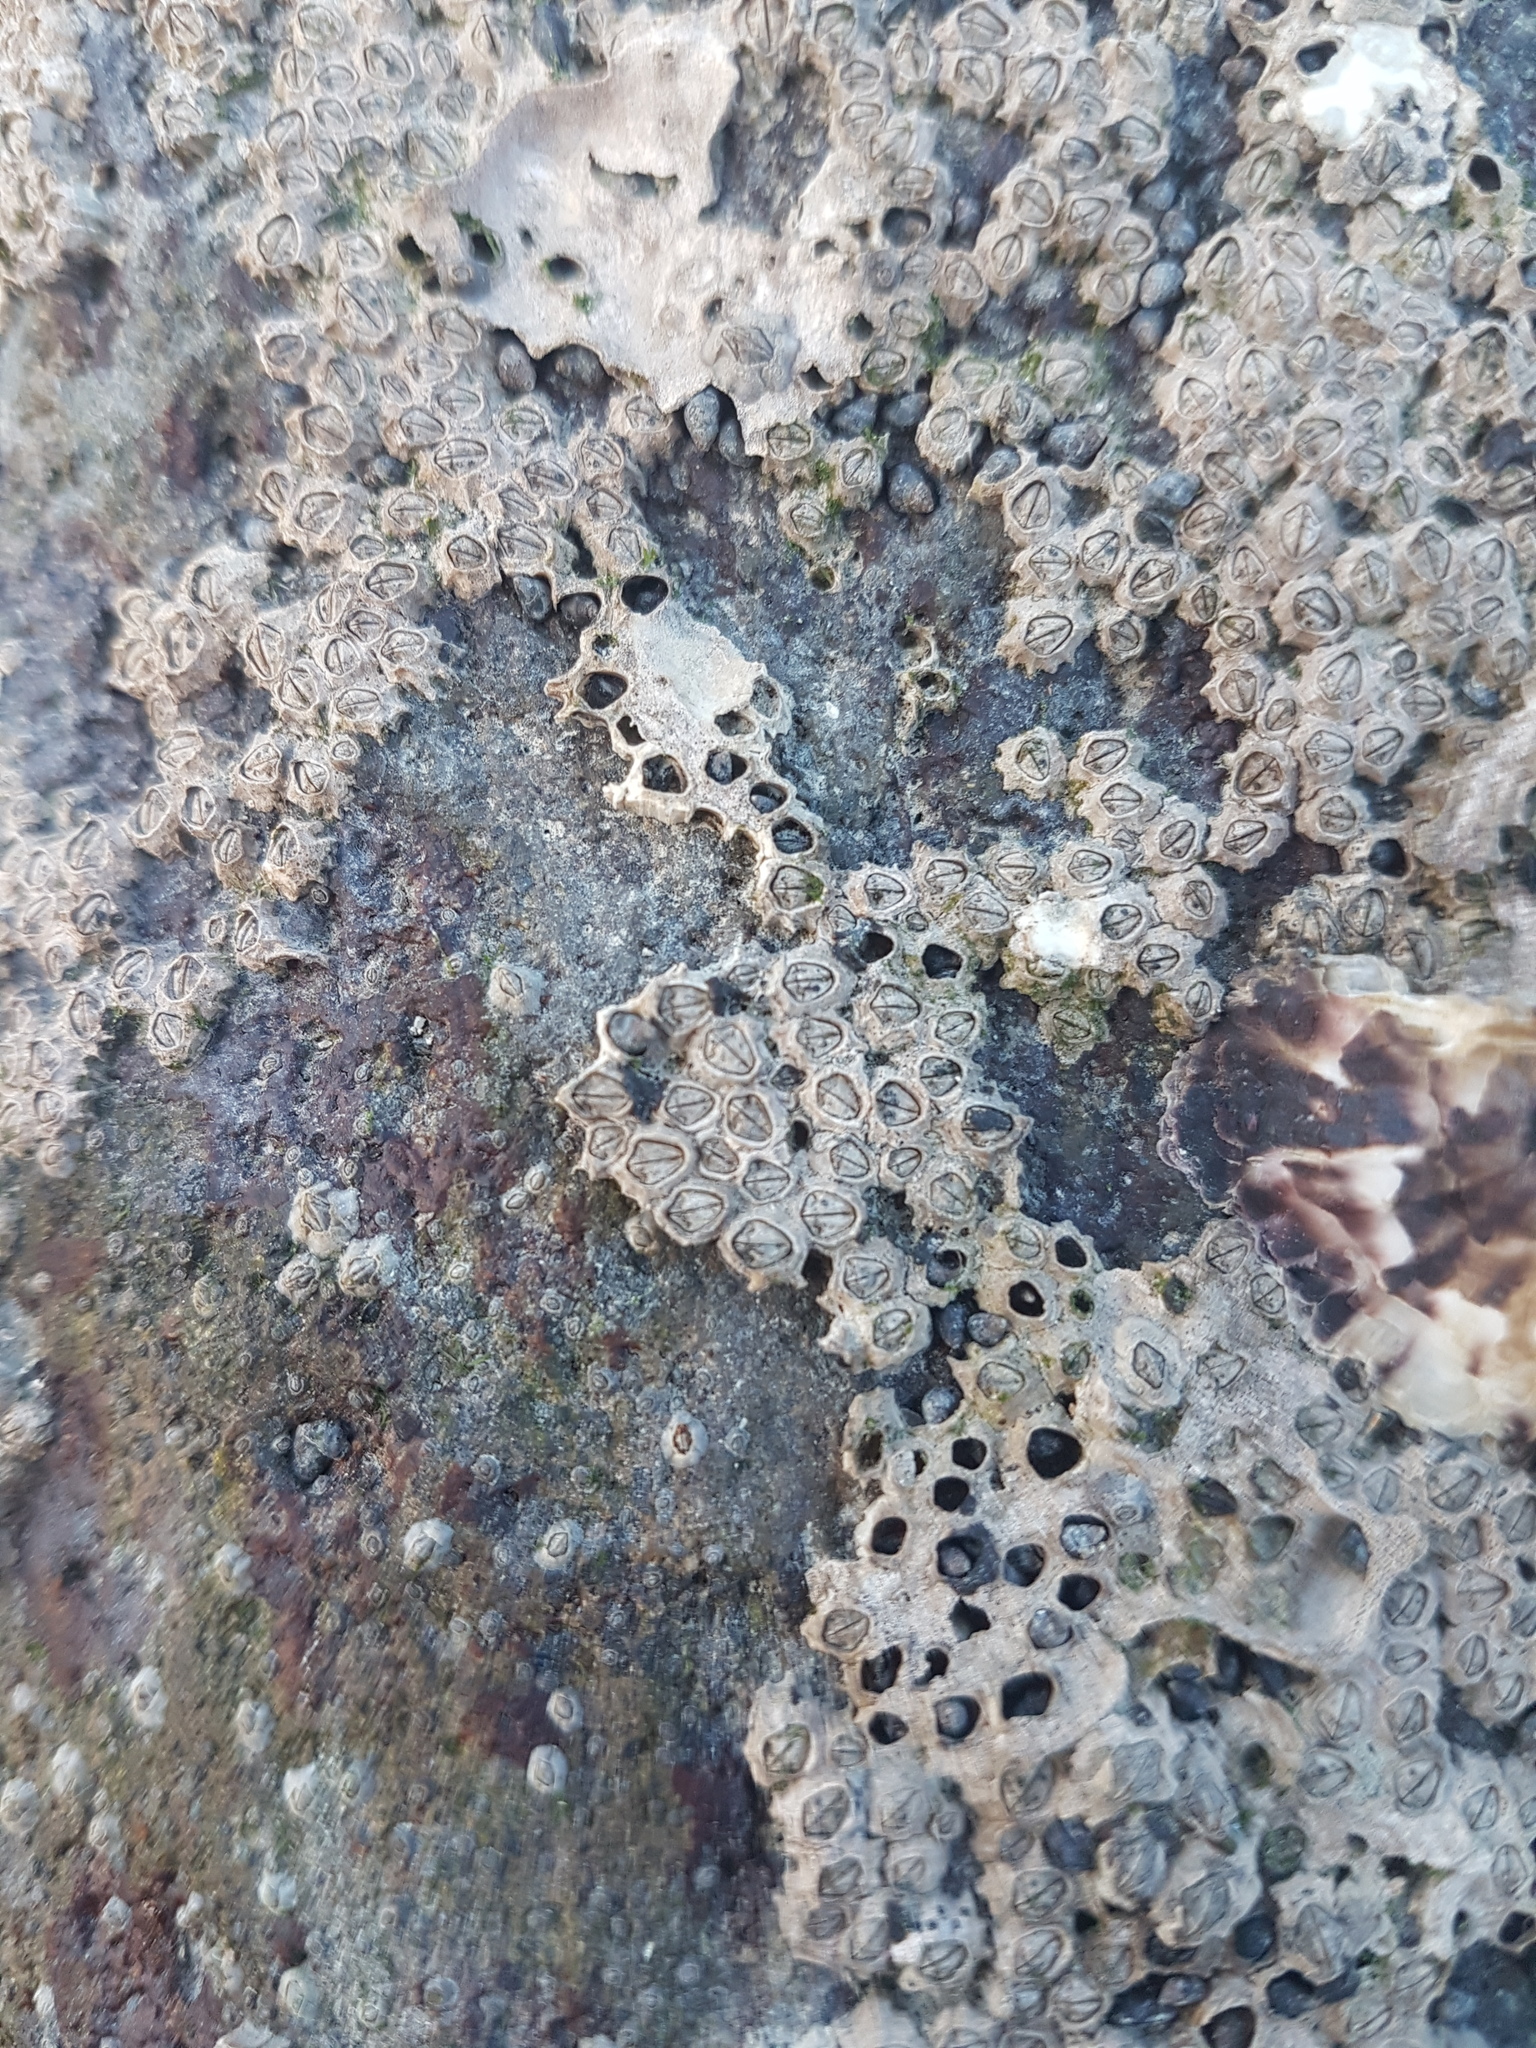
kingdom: Animalia
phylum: Arthropoda
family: Elminiidae
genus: Austrominius
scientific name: Austrominius modestus
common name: Australasian barnacle
